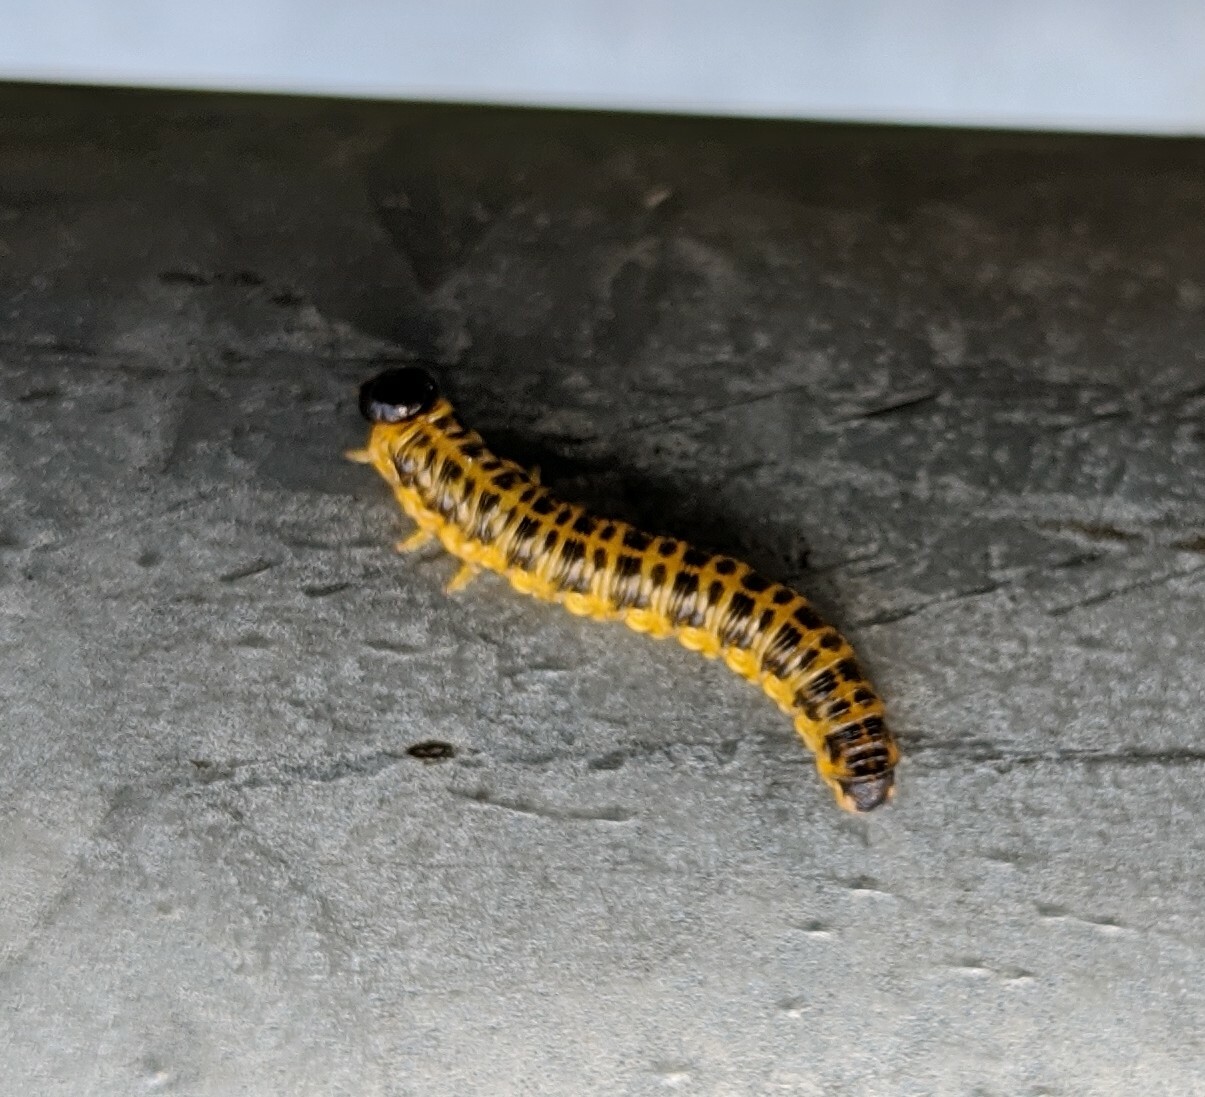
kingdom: Animalia
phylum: Arthropoda
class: Insecta
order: Hymenoptera
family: Tenthredinidae
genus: Macremphytus
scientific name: Macremphytus testaceus
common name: Dogwood sawfly
